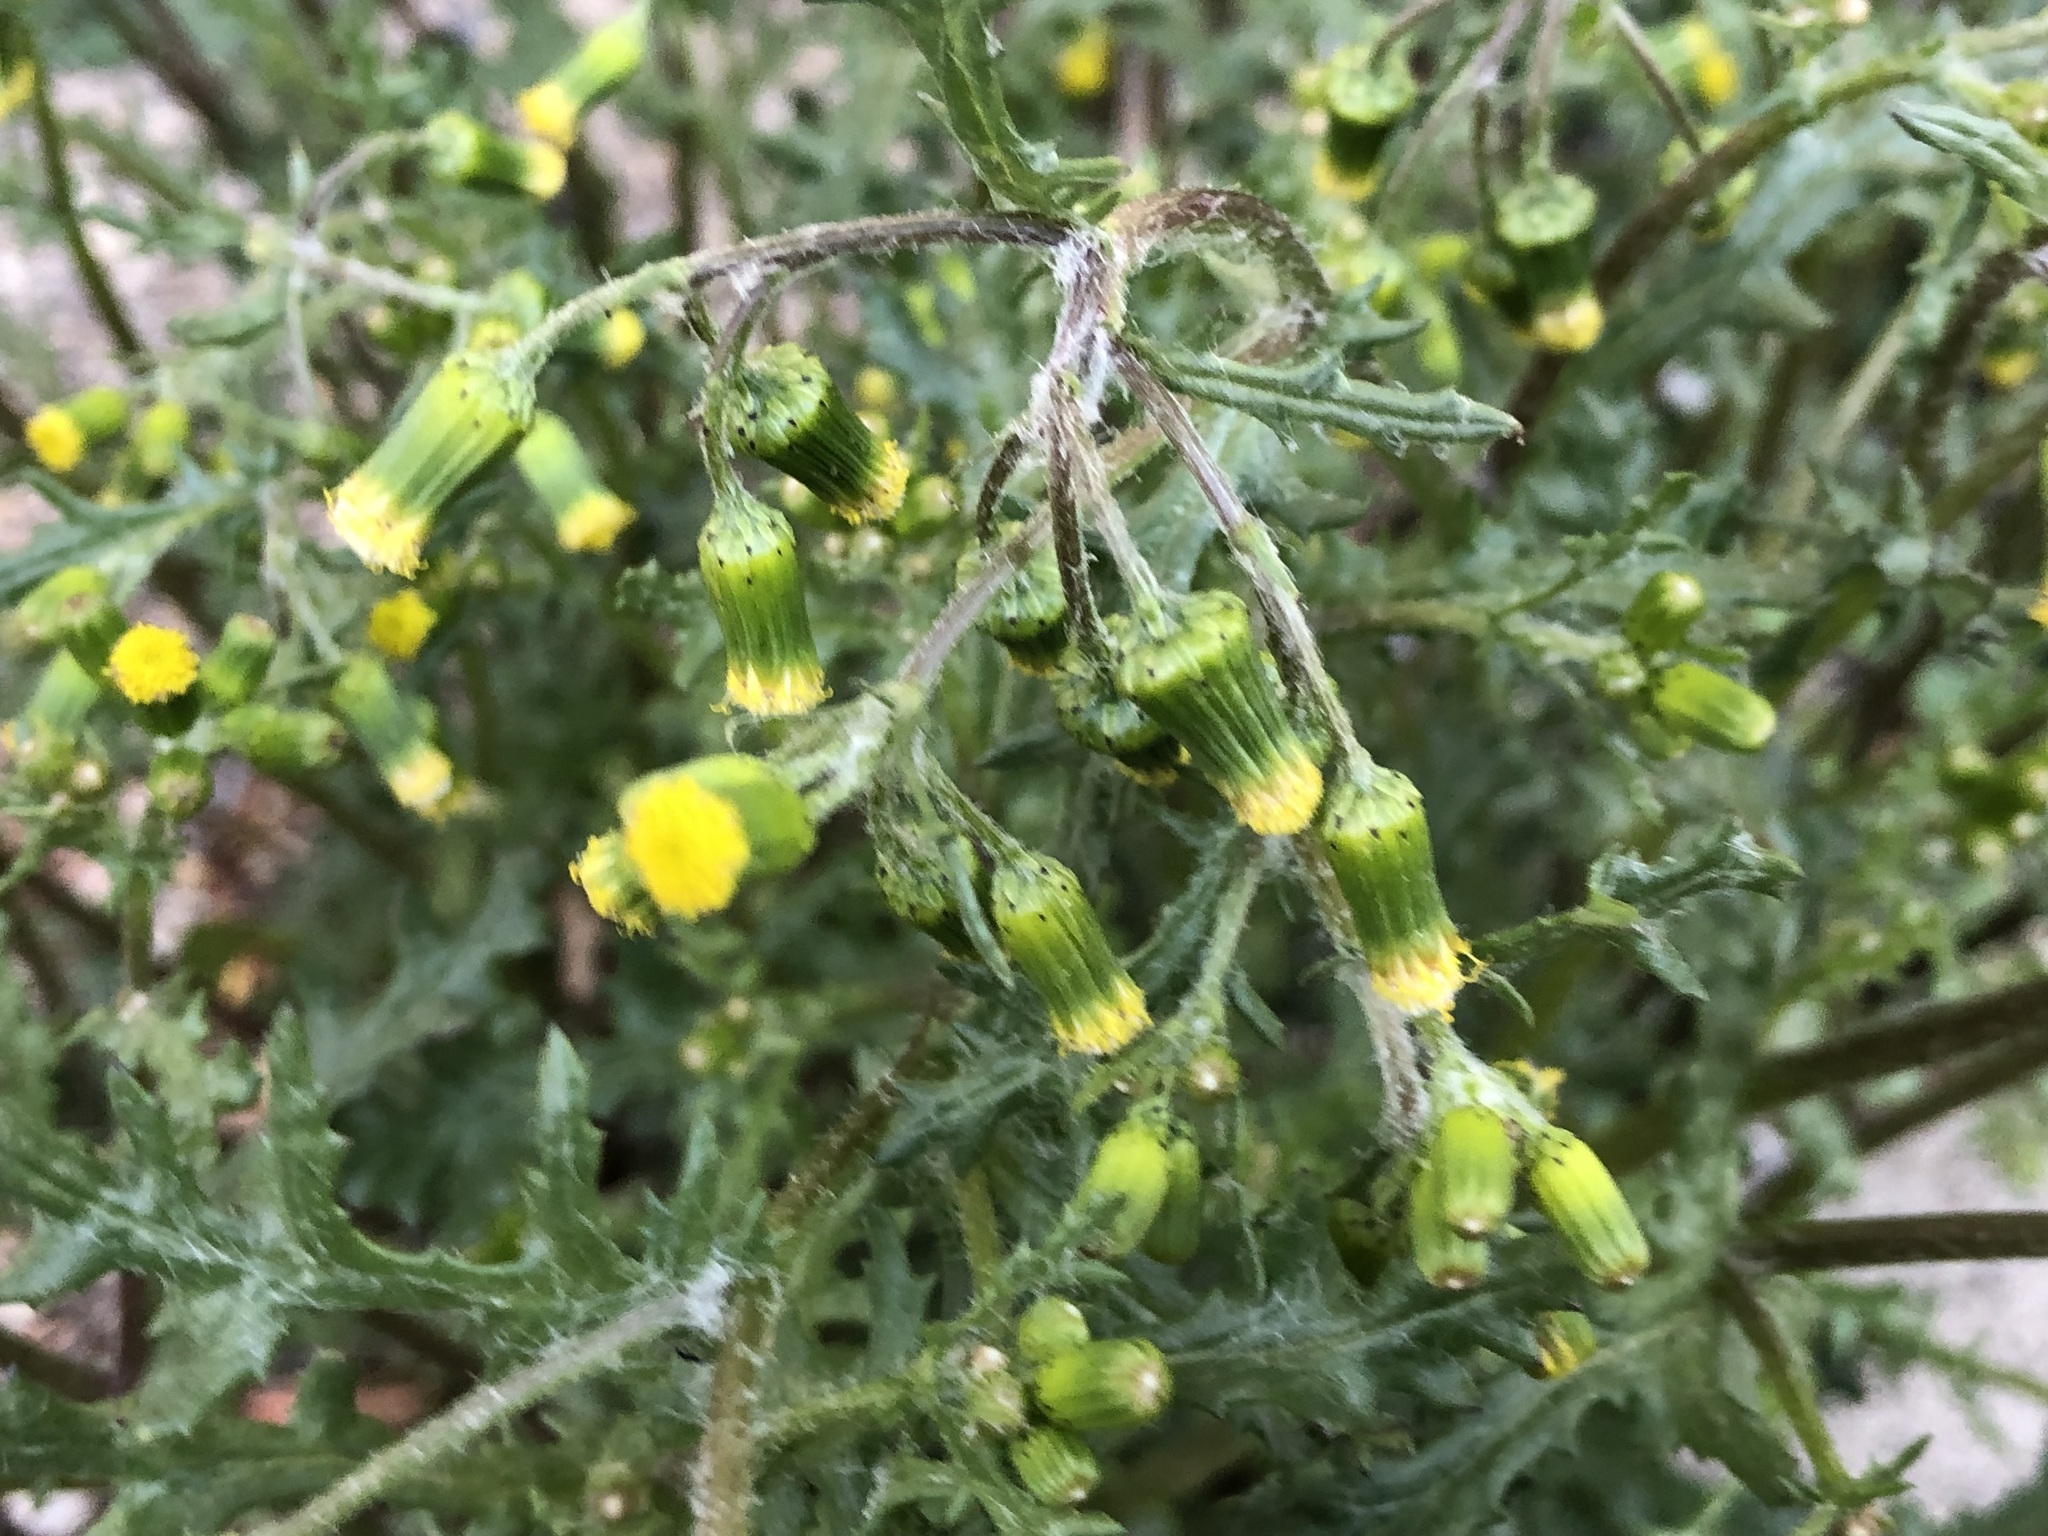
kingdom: Plantae
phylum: Tracheophyta
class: Magnoliopsida
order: Asterales
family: Asteraceae
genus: Senecio
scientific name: Senecio vulgaris
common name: Old-man-in-the-spring
